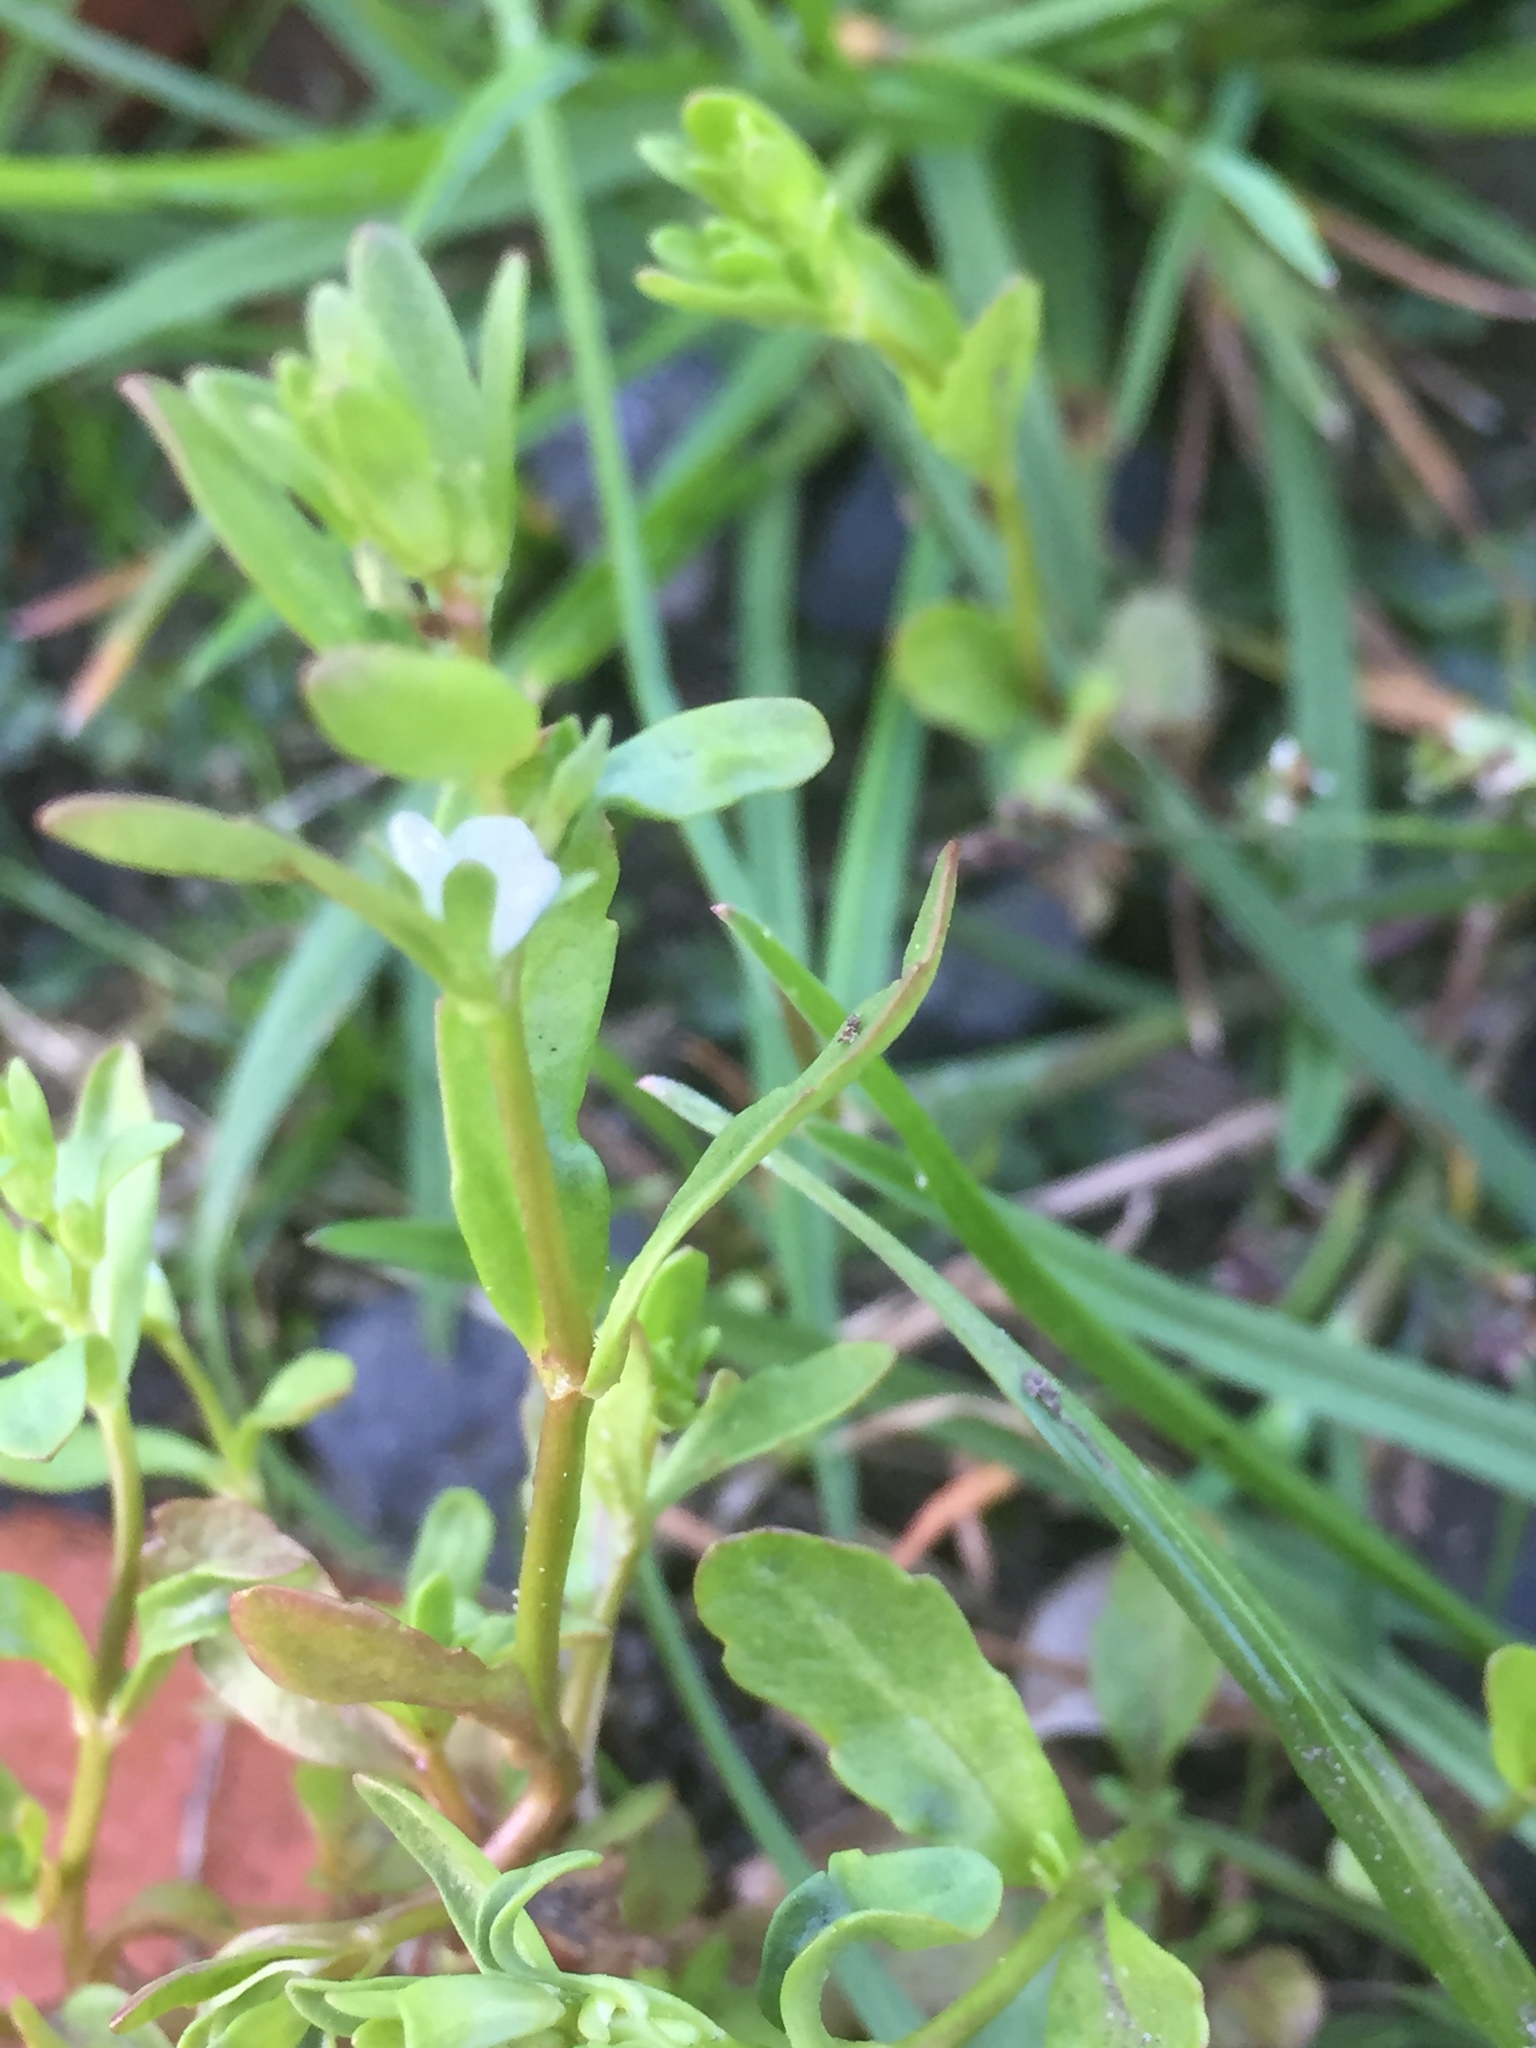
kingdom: Plantae
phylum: Tracheophyta
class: Magnoliopsida
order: Lamiales
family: Plantaginaceae
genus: Veronica
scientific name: Veronica peregrina
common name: Neckweed
